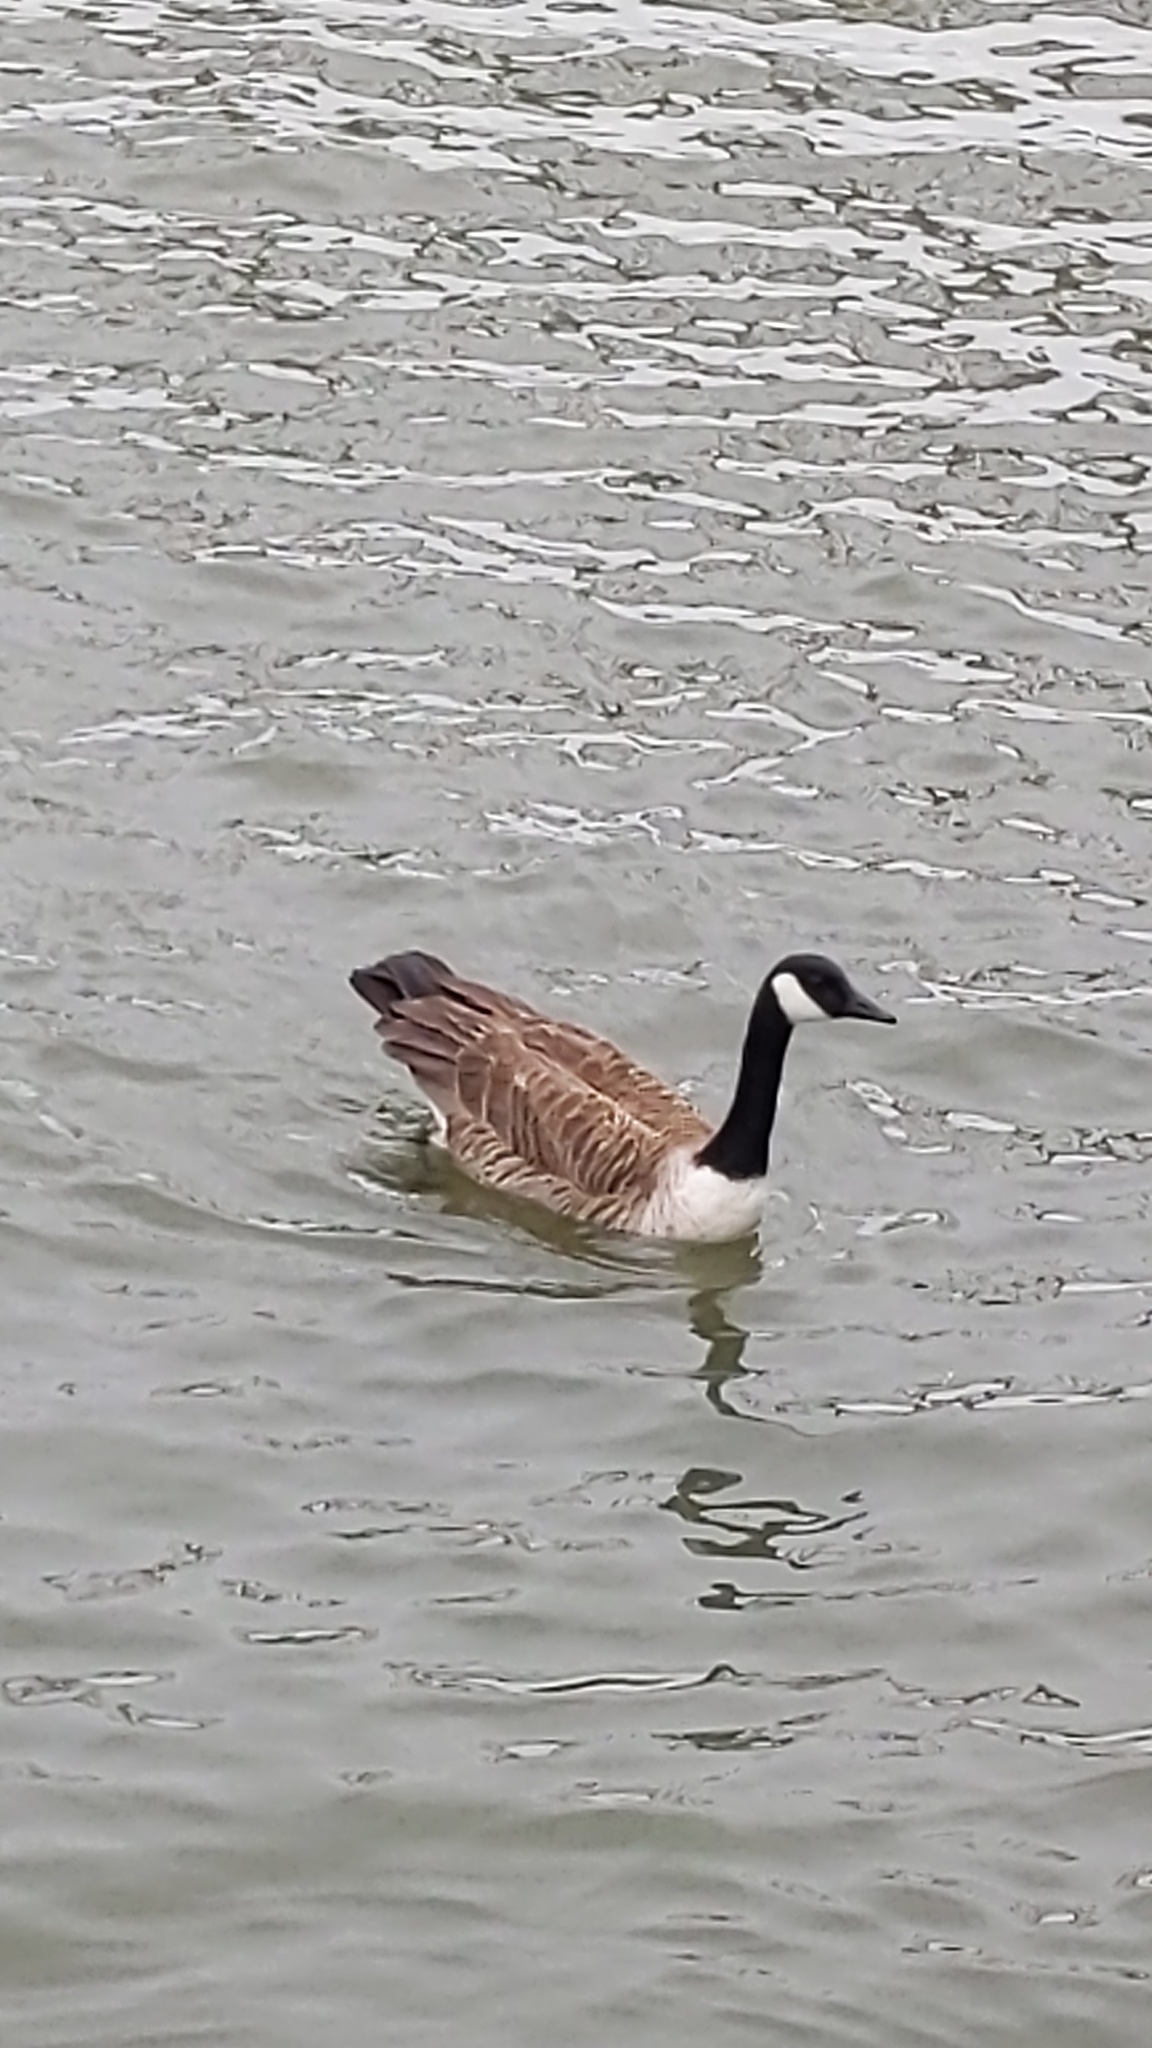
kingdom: Animalia
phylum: Chordata
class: Aves
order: Anseriformes
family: Anatidae
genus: Branta
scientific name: Branta canadensis
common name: Canada goose
